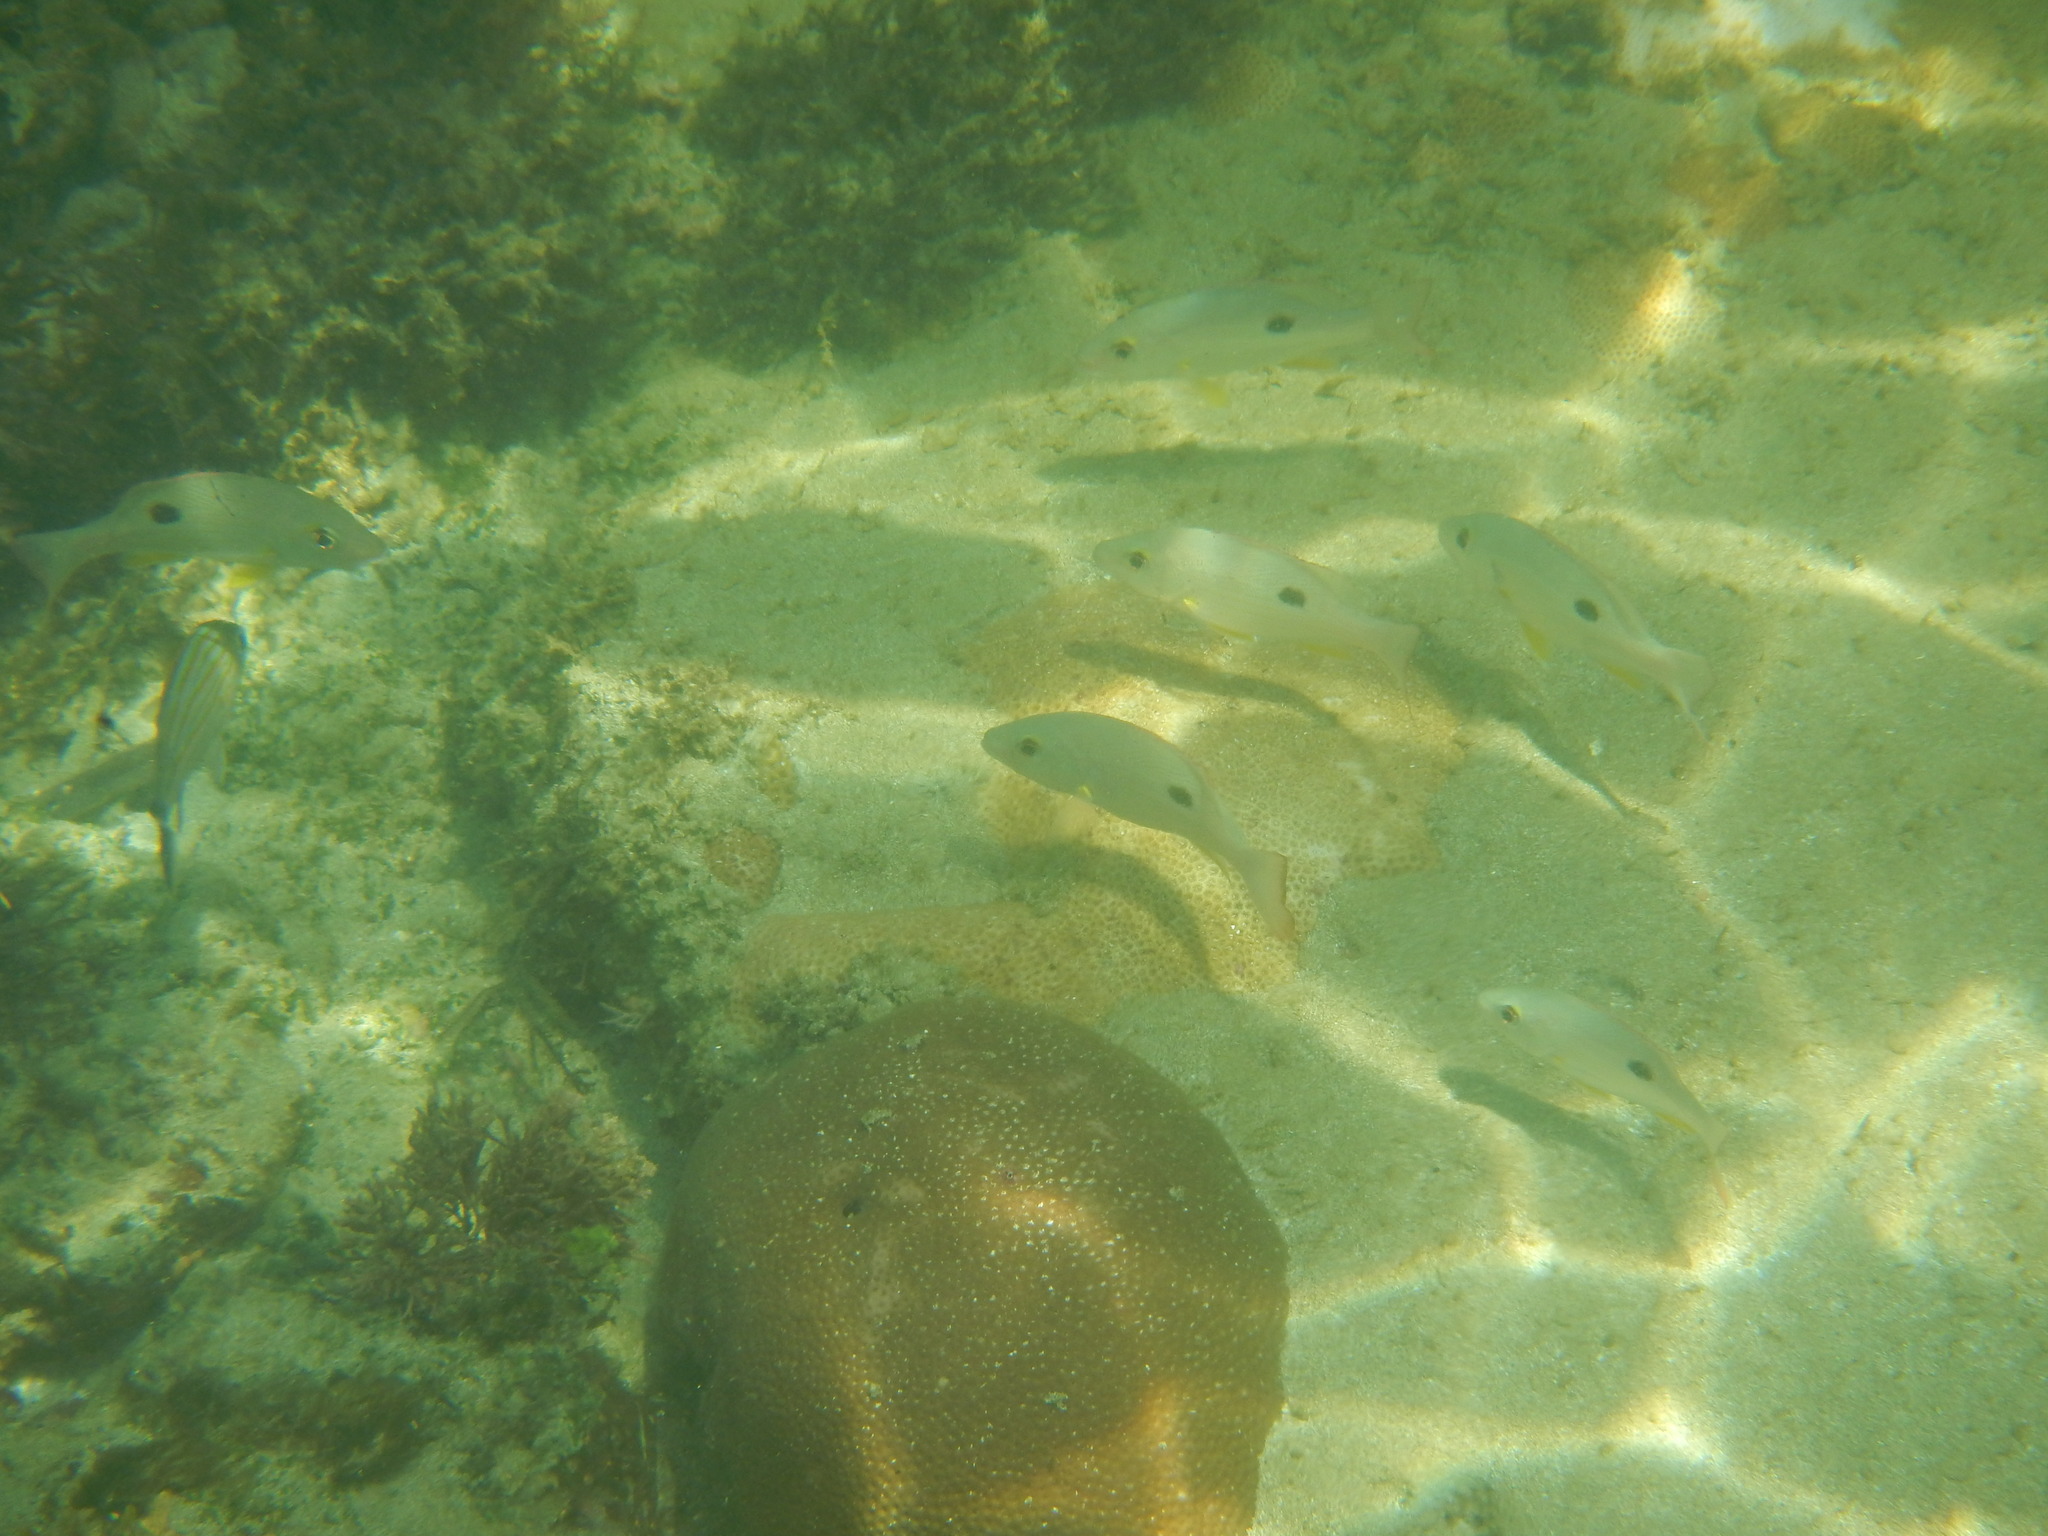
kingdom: Animalia
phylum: Chordata
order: Perciformes
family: Lutjanidae
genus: Lutjanus
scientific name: Lutjanus mahogoni
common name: Spot snapper
